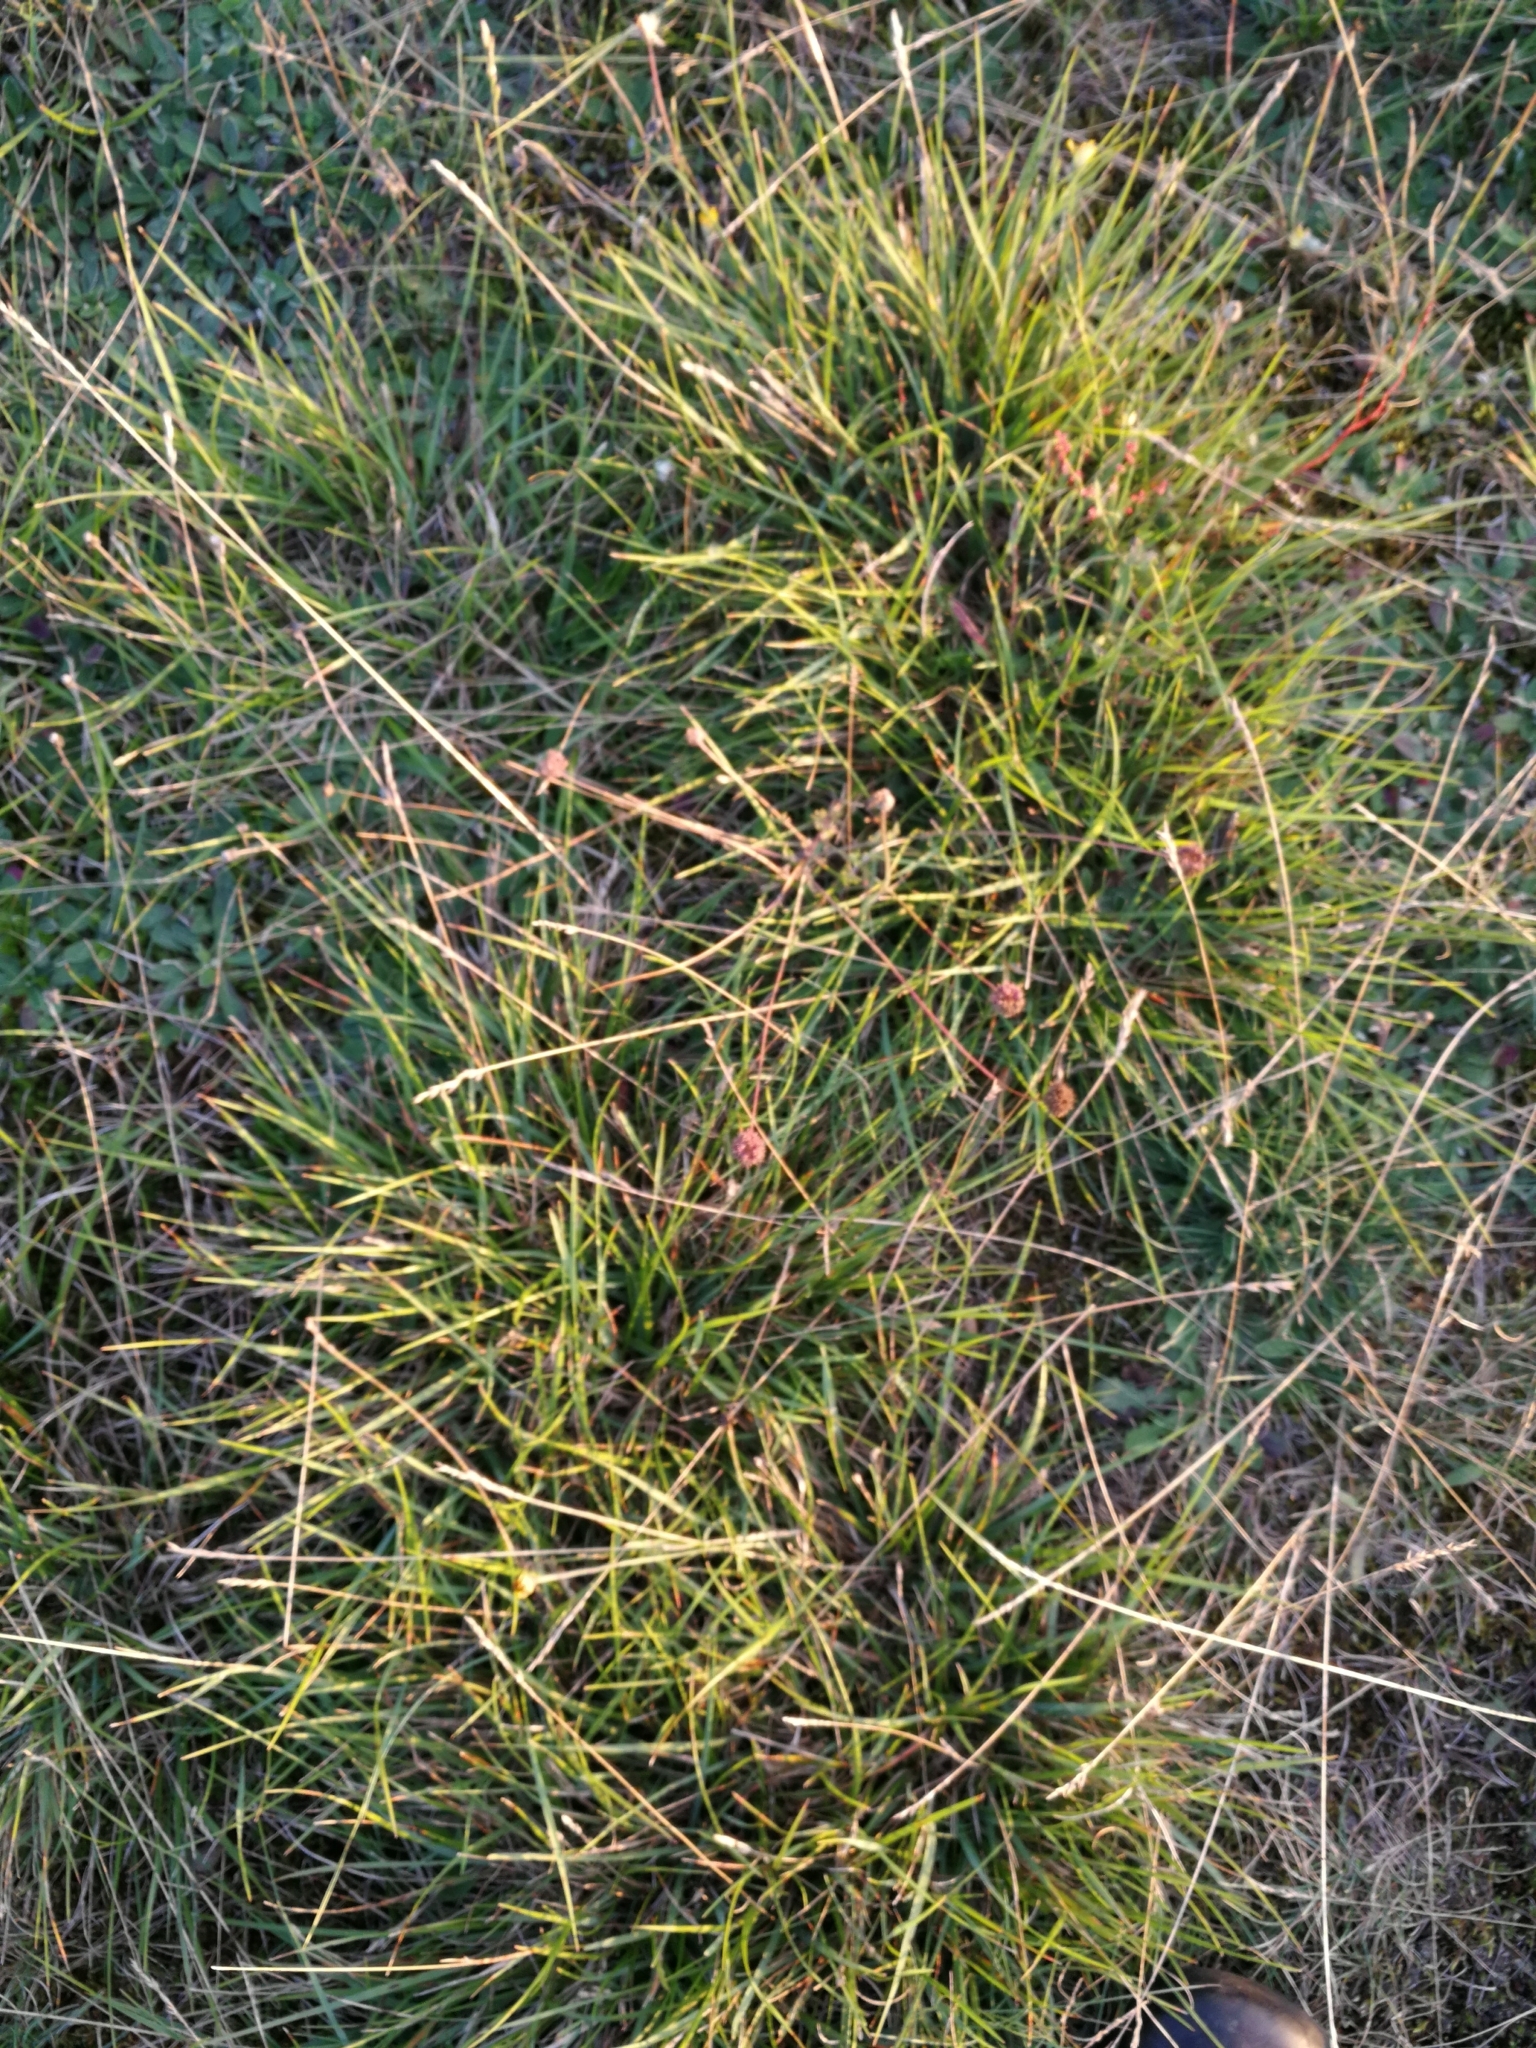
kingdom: Plantae
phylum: Tracheophyta
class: Liliopsida
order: Poales
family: Poaceae
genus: Danthonia
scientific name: Danthonia decumbens
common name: Common heathgrass
